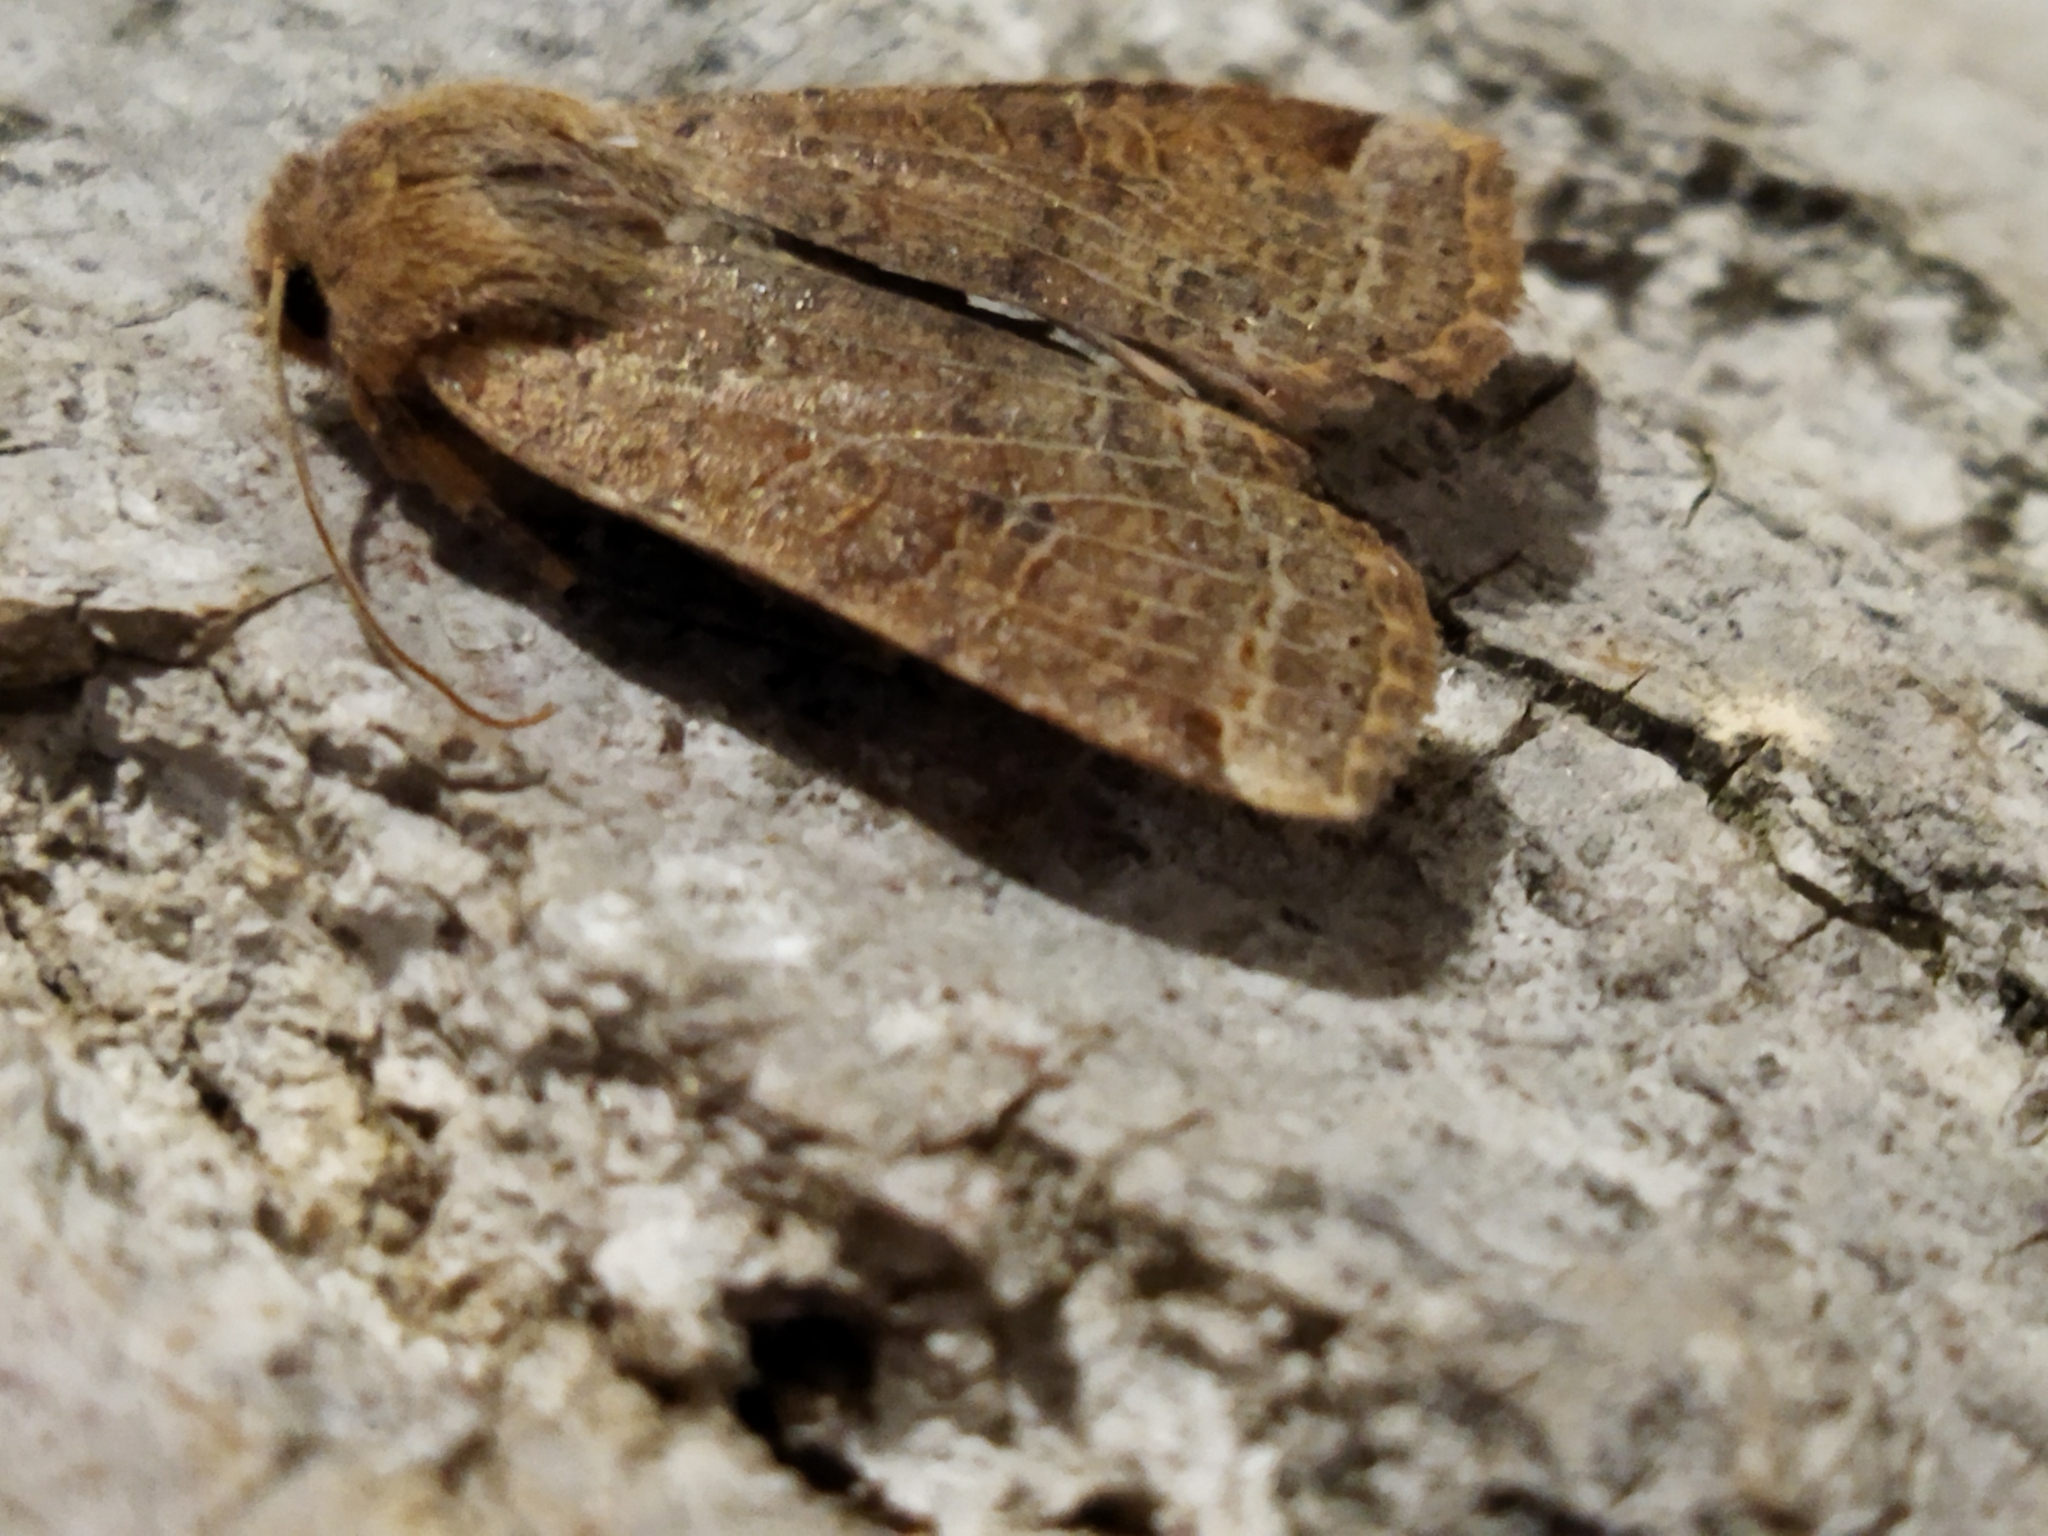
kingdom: Animalia
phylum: Arthropoda
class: Insecta
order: Lepidoptera
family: Noctuidae
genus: Conistra
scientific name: Conistra veronicae
